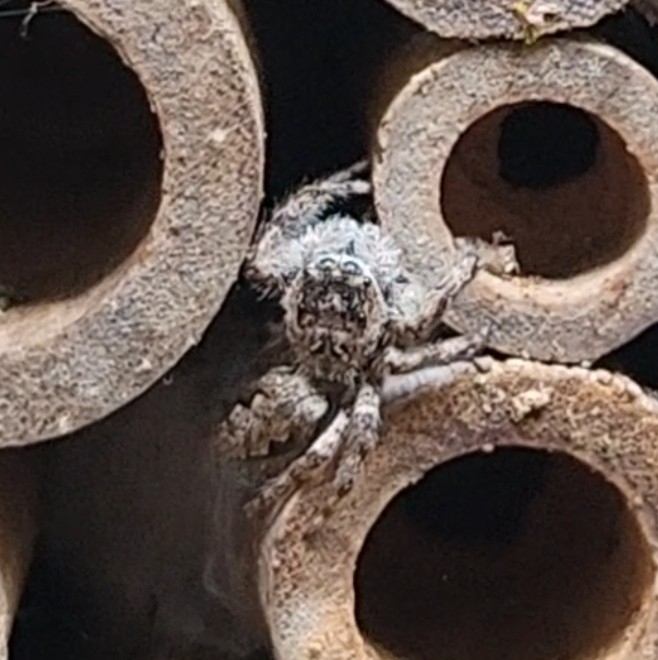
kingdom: Animalia
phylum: Arthropoda
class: Arachnida
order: Araneae
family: Salticidae
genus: Platycryptus
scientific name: Platycryptus undatus
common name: Tan jumping spider
